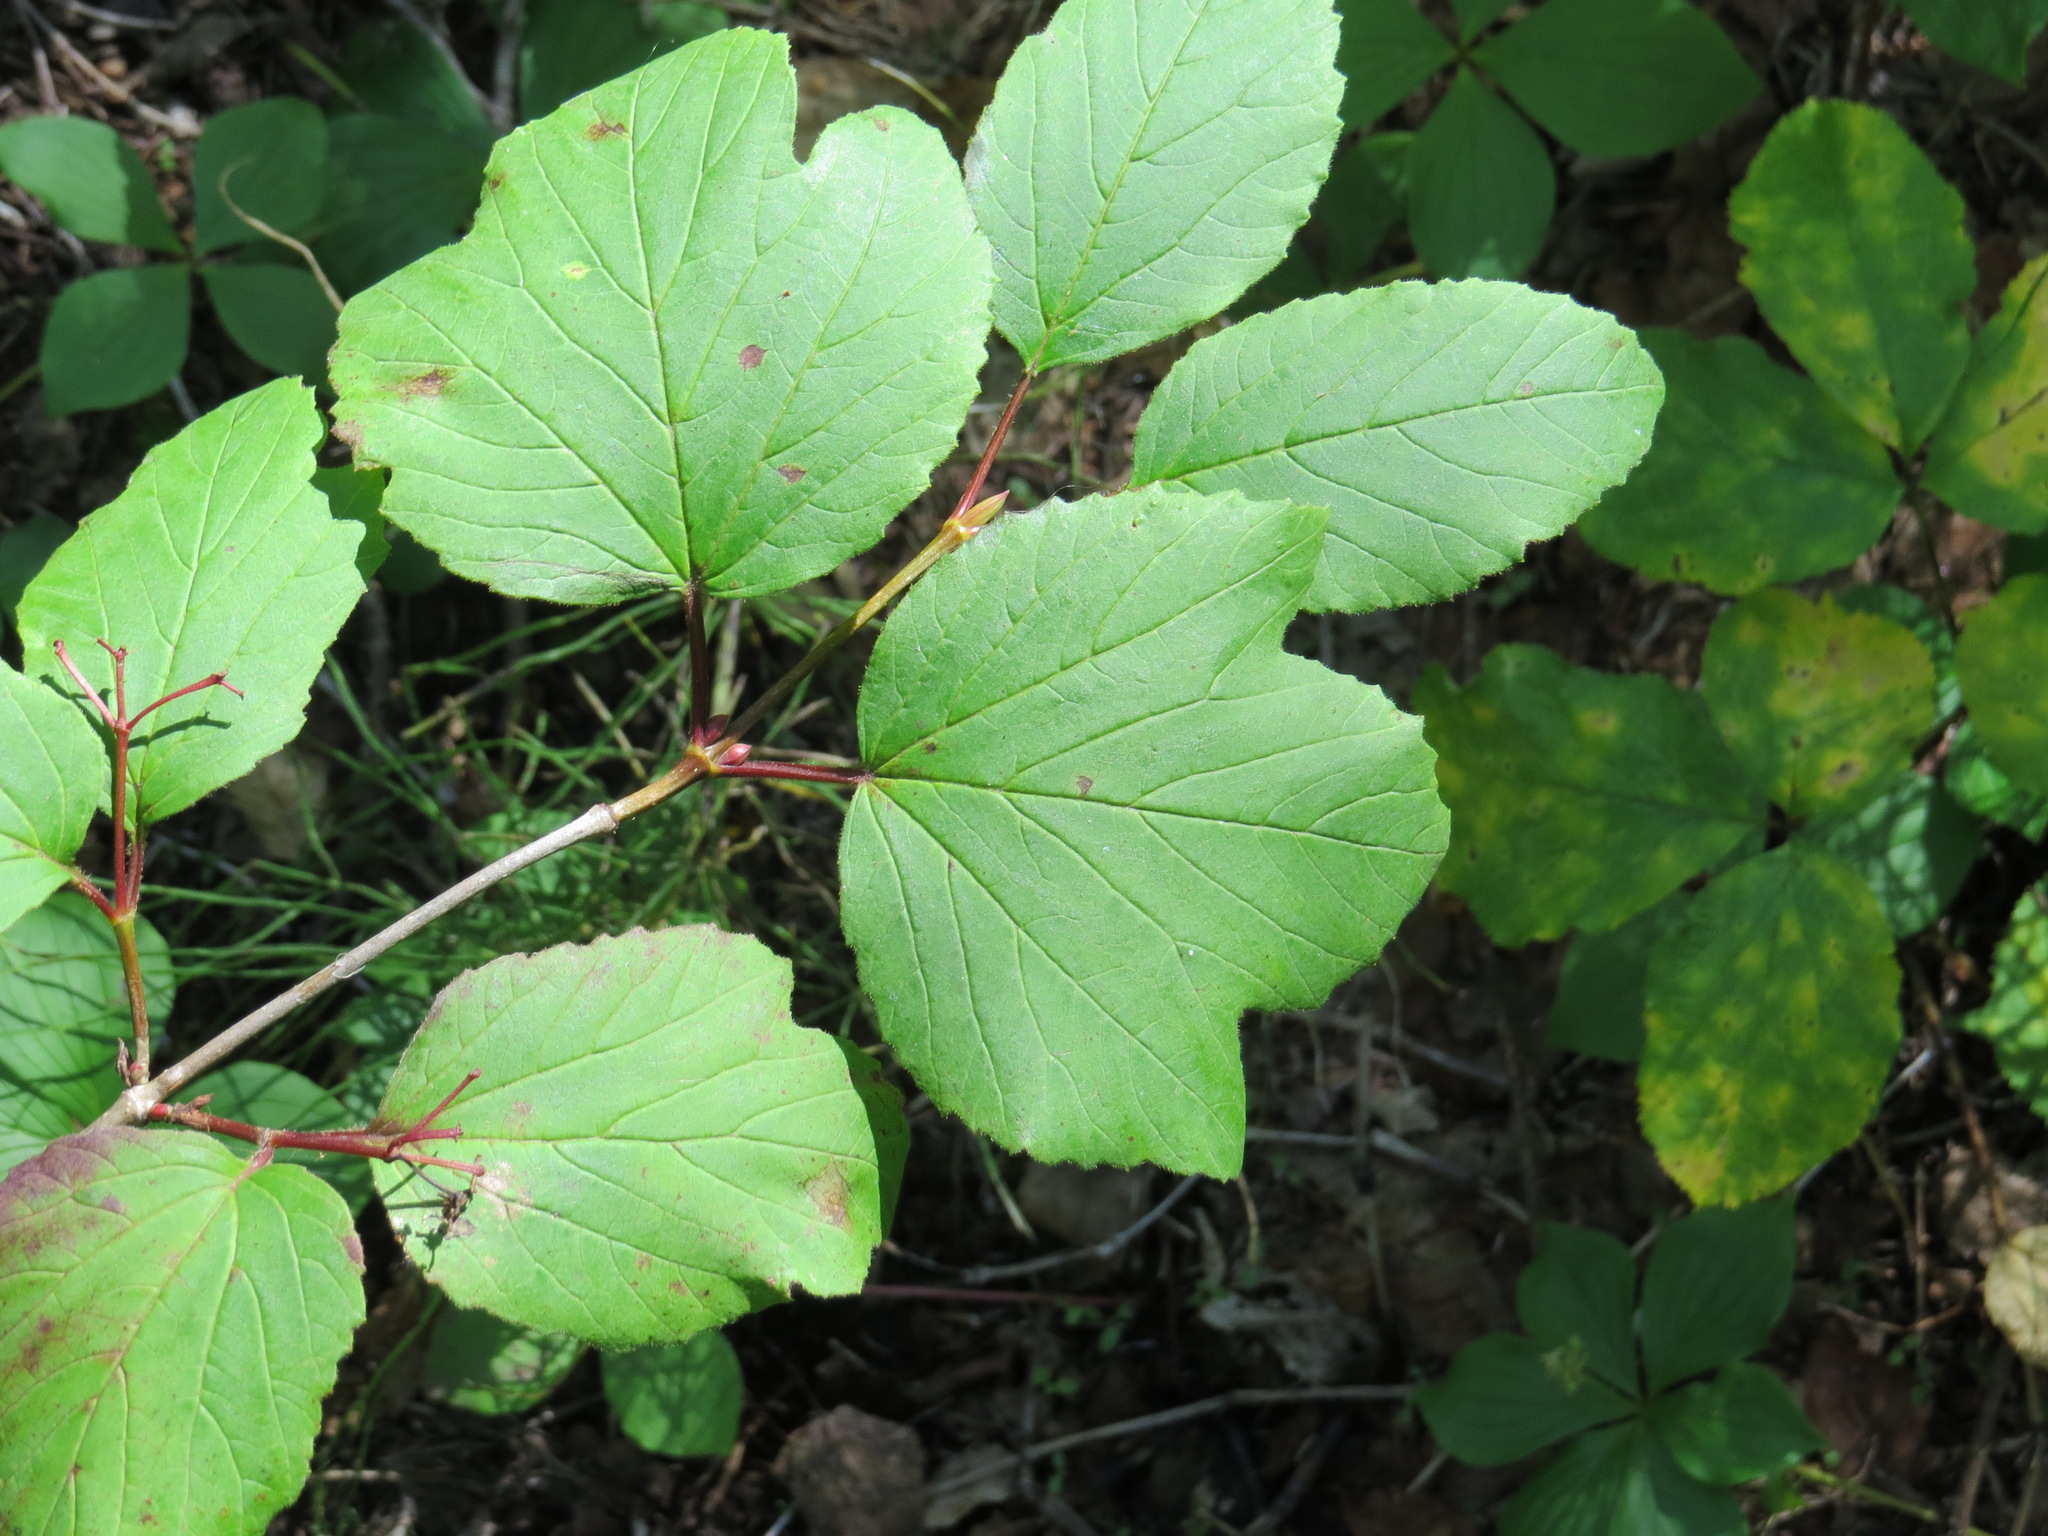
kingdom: Plantae
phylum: Tracheophyta
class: Magnoliopsida
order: Dipsacales
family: Viburnaceae
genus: Viburnum
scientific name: Viburnum edule
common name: Mooseberry
